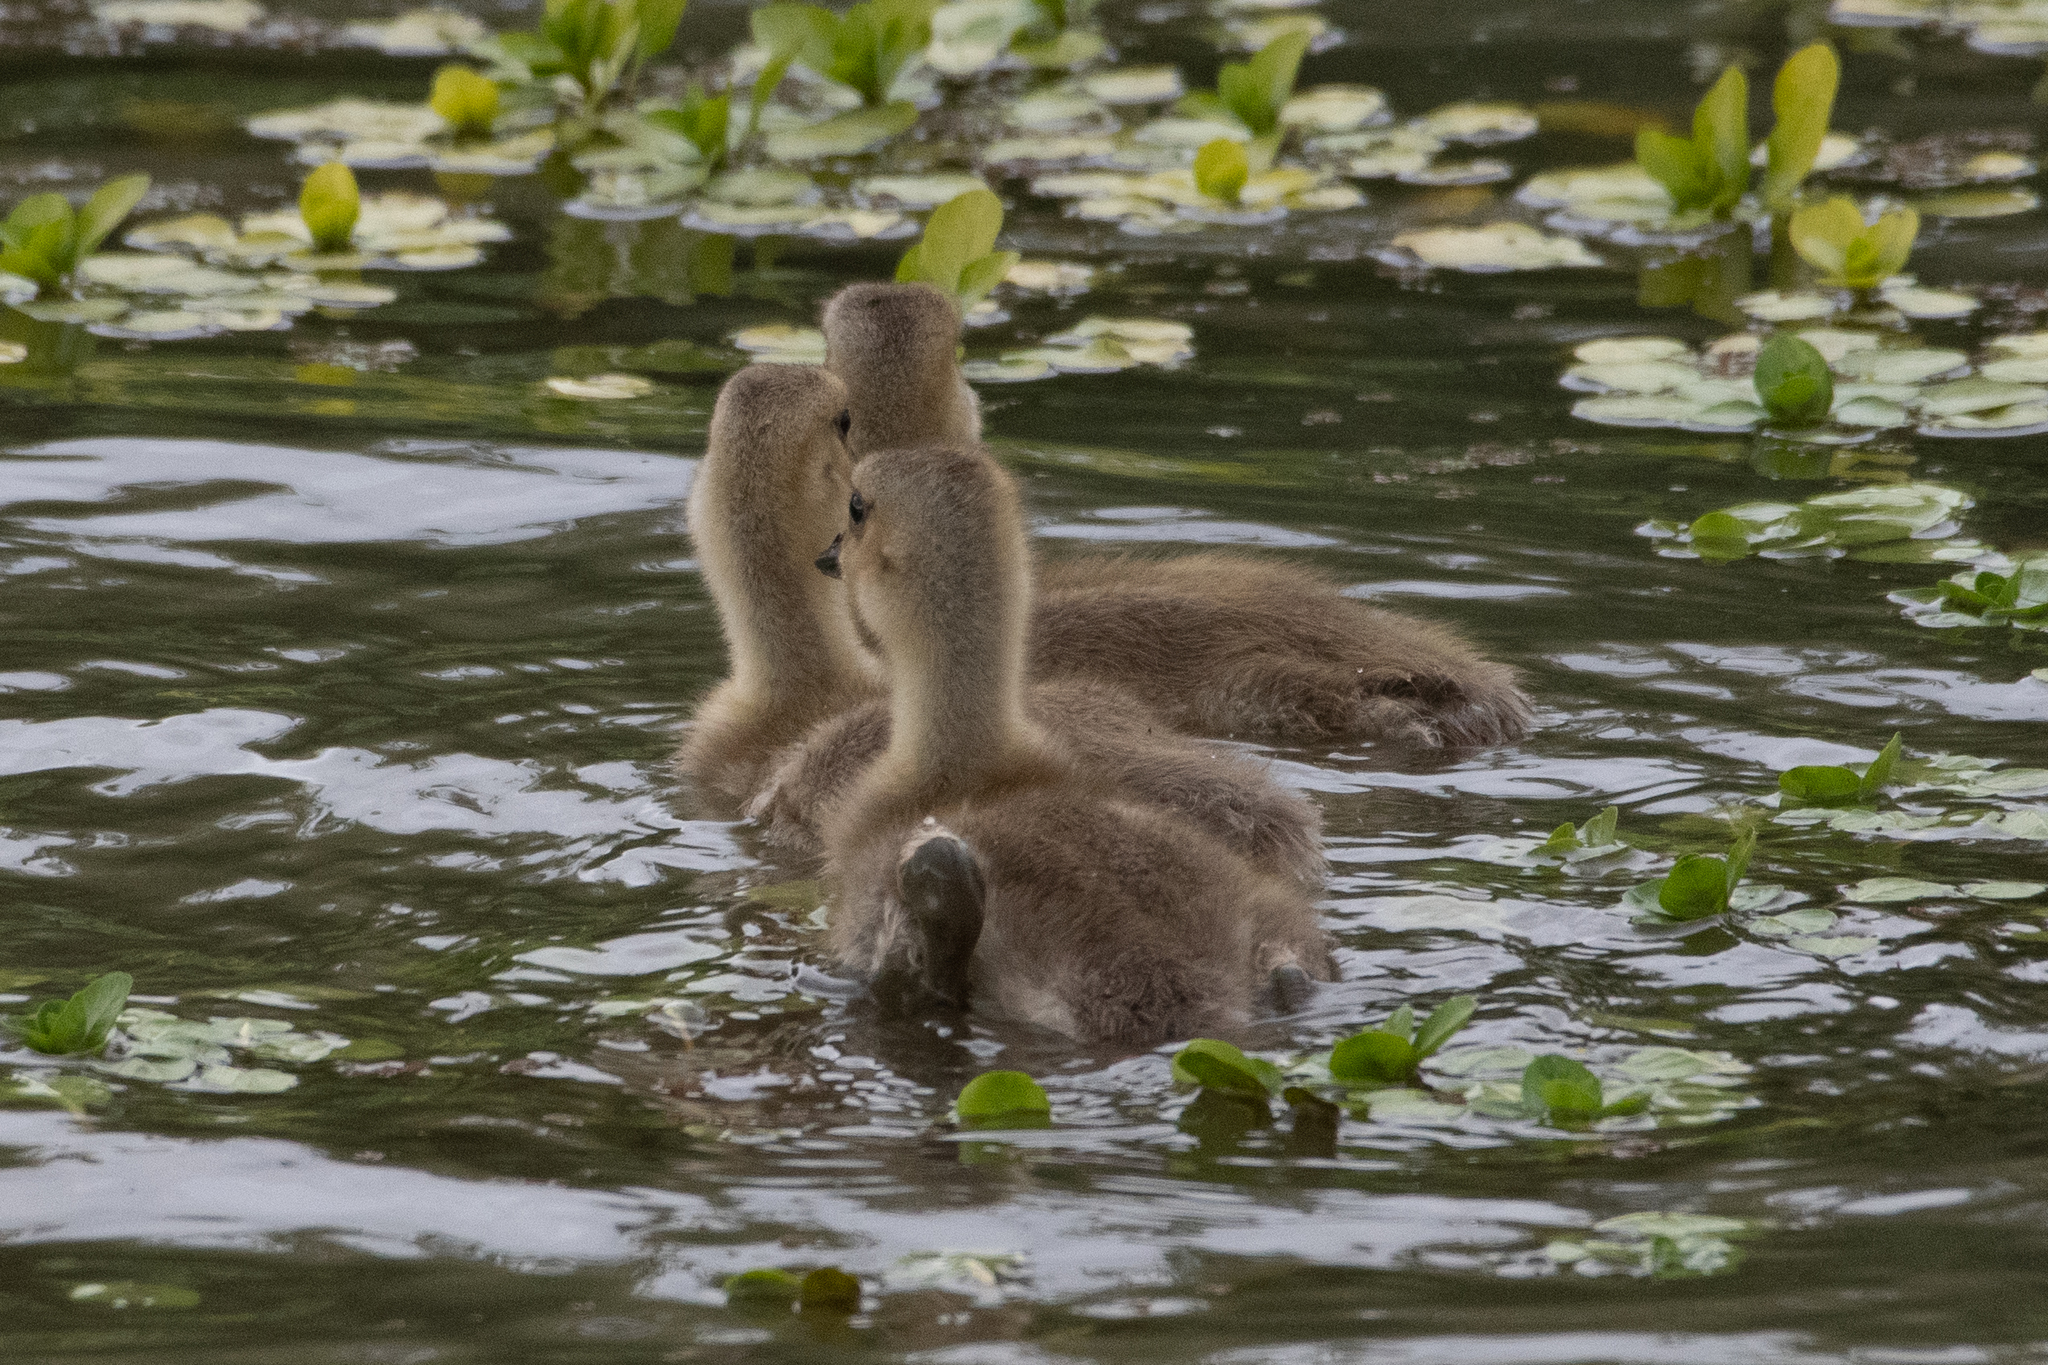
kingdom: Animalia
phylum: Chordata
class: Aves
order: Anseriformes
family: Anatidae
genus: Branta
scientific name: Branta canadensis
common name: Canada goose
